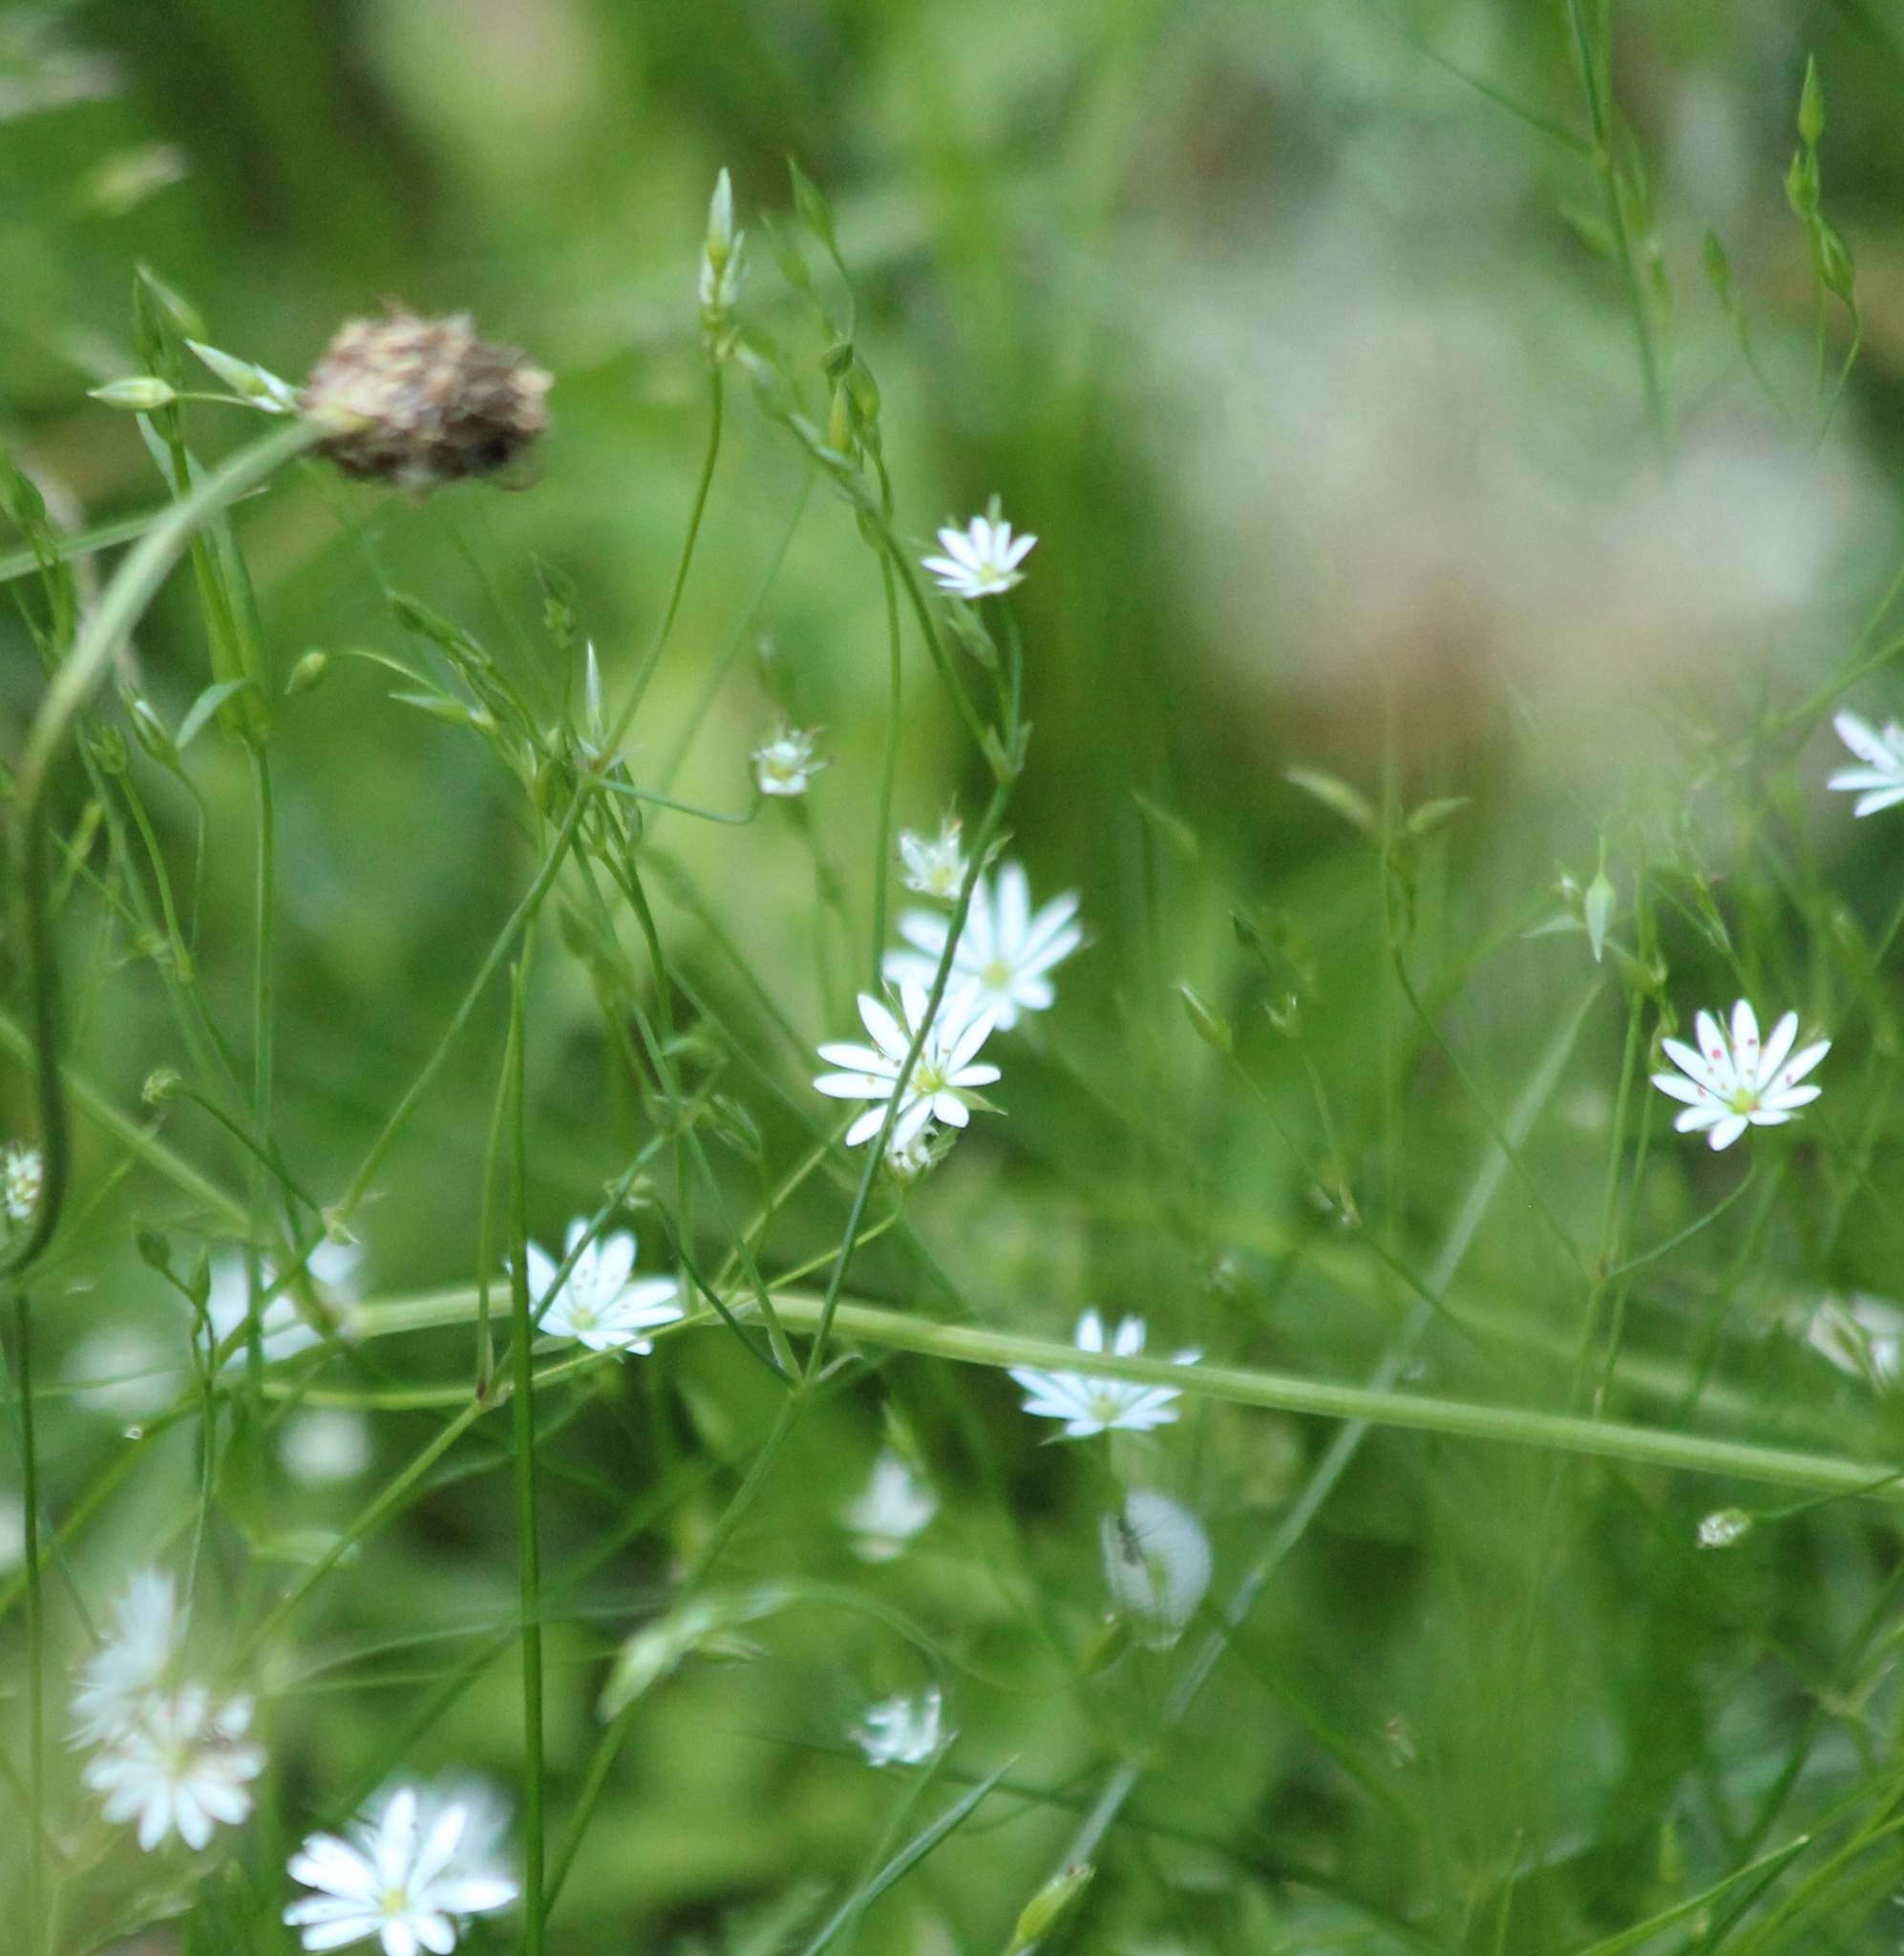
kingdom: Plantae
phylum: Tracheophyta
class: Magnoliopsida
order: Caryophyllales
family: Caryophyllaceae
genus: Stellaria
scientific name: Stellaria graminea
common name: Grass-like starwort
